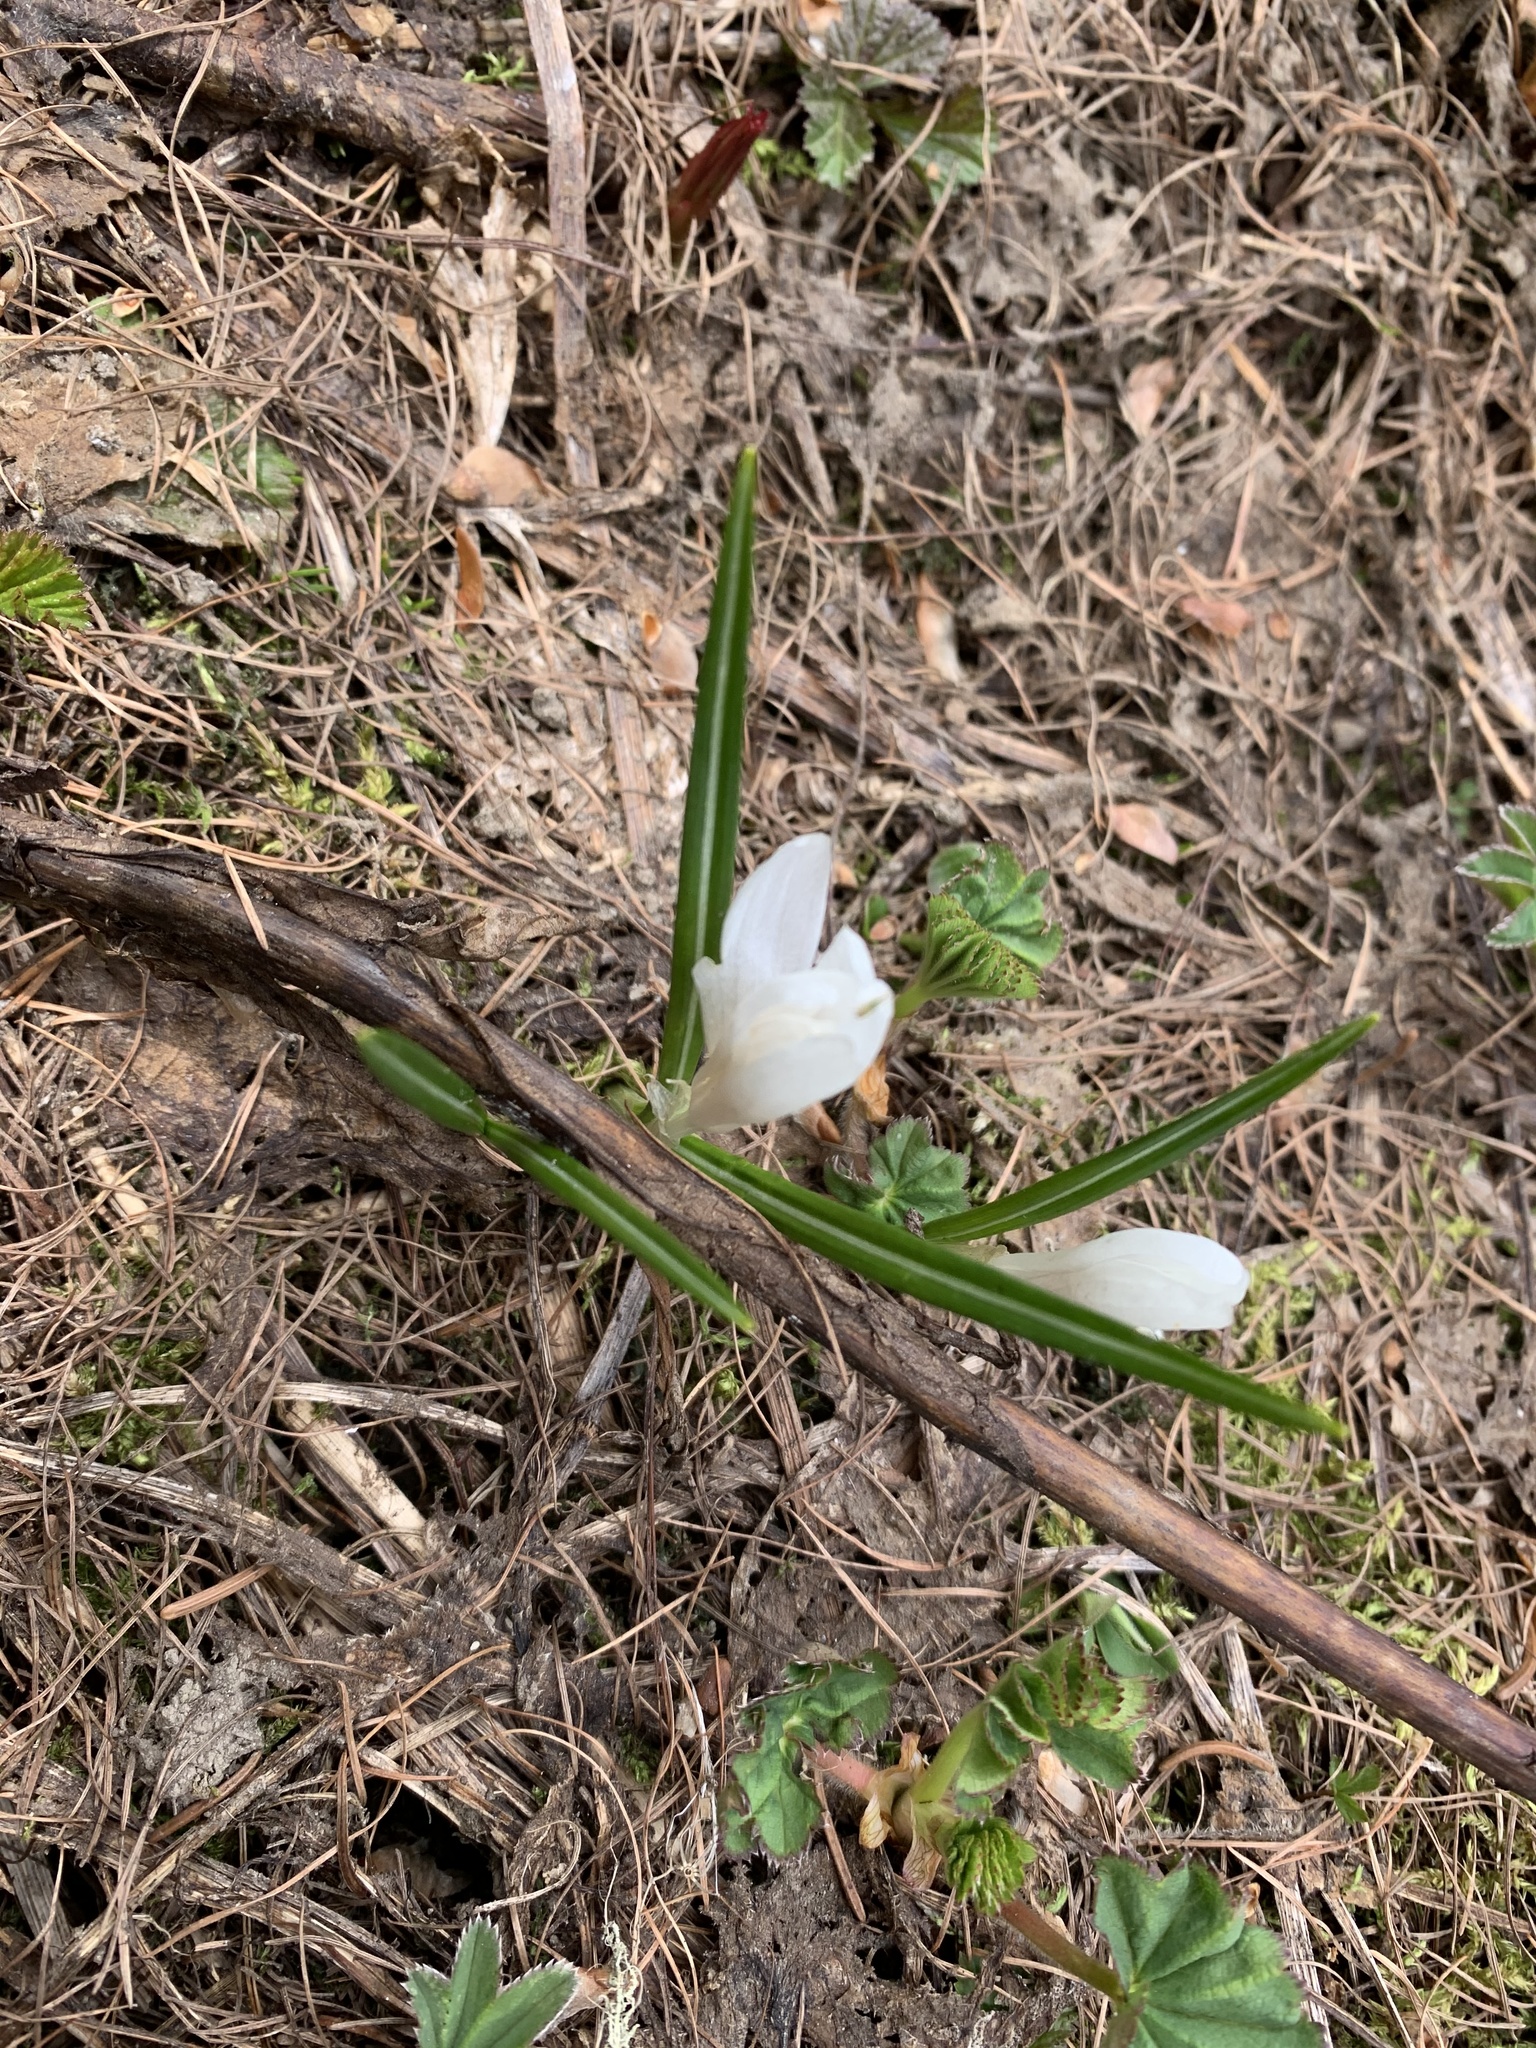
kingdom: Plantae
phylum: Tracheophyta
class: Liliopsida
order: Asparagales
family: Iridaceae
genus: Crocus
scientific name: Crocus vernus
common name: Spring crocus
